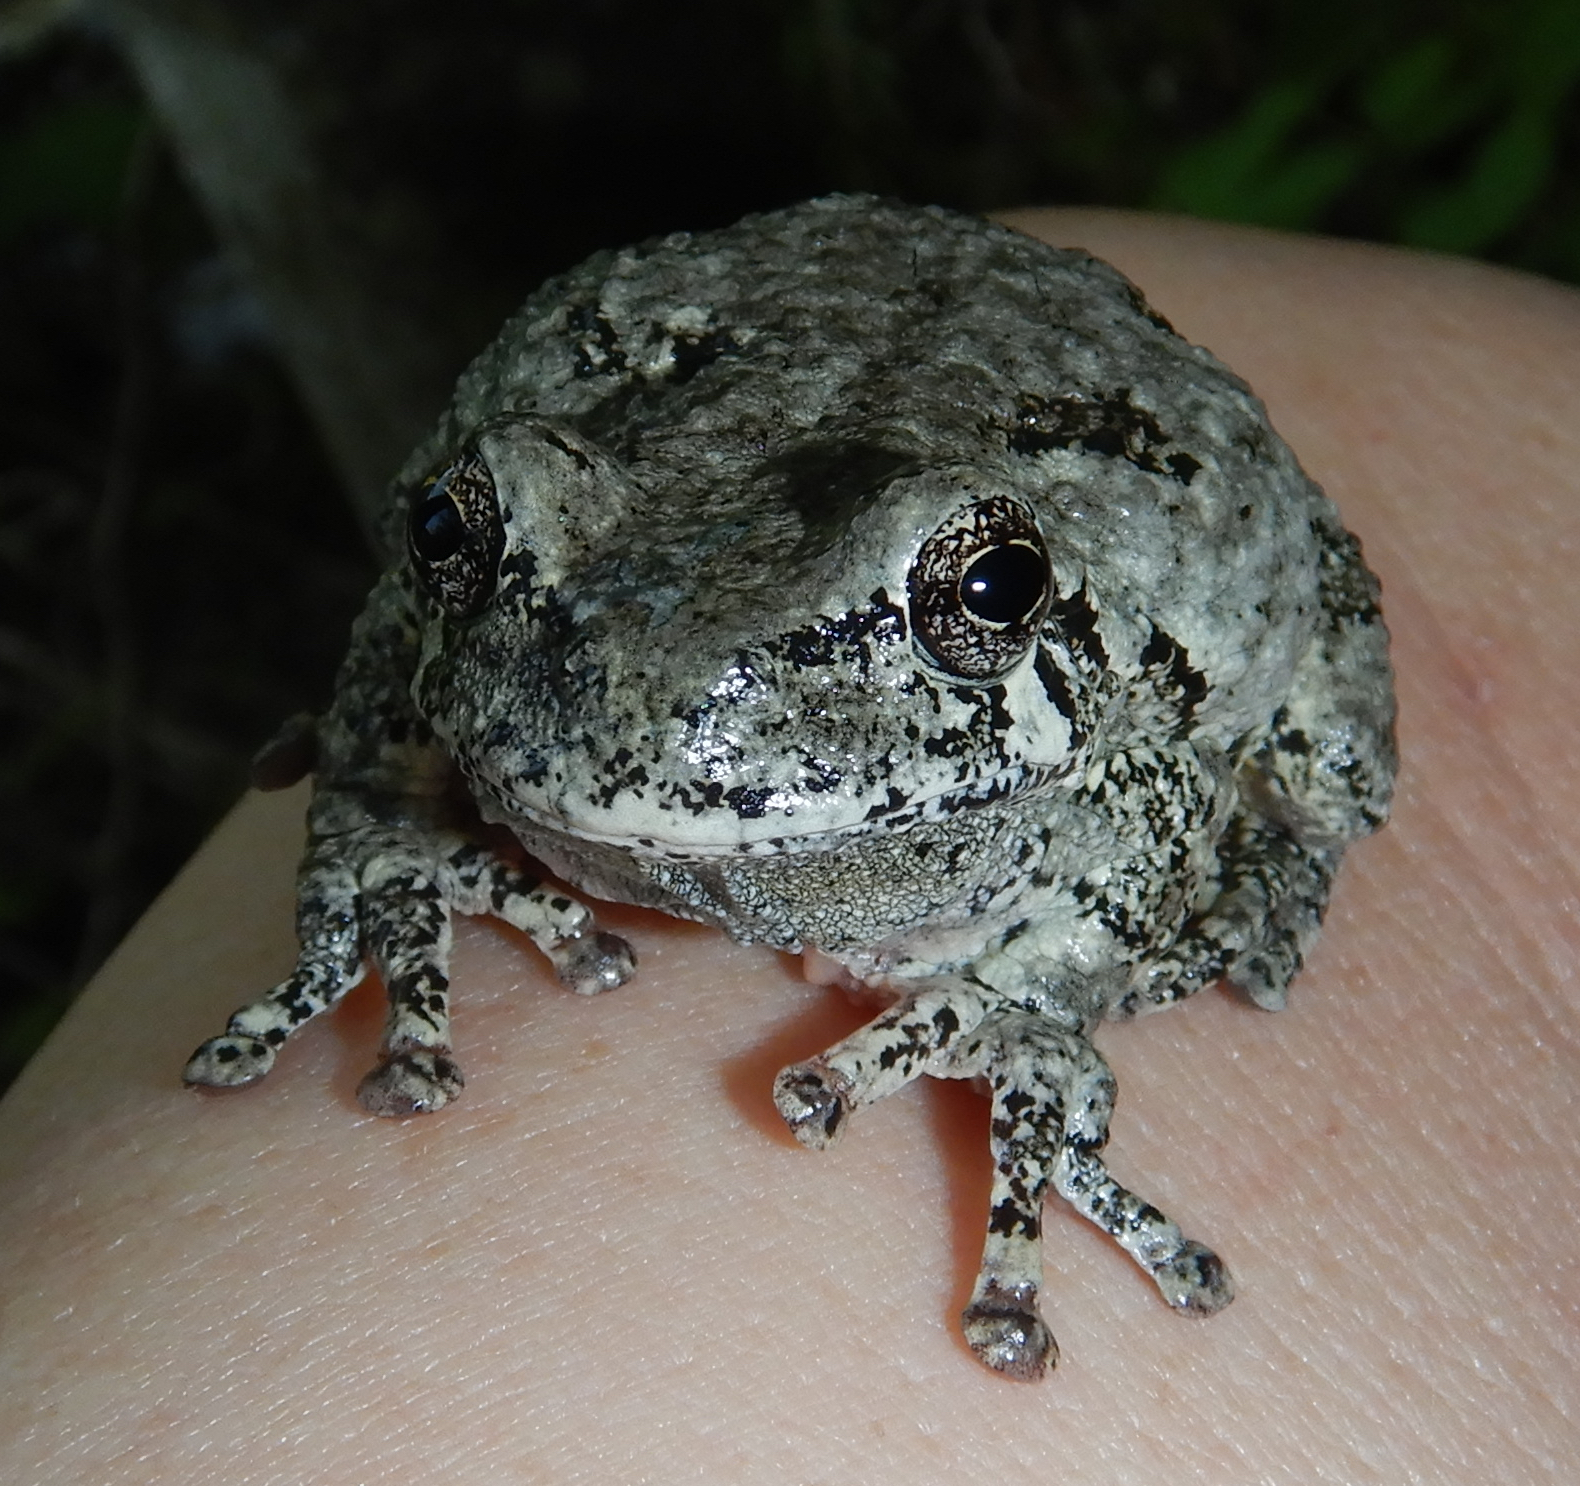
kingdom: Animalia
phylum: Chordata
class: Amphibia
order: Anura
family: Hylidae
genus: Dryophytes
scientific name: Dryophytes versicolor
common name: Gray treefrog
